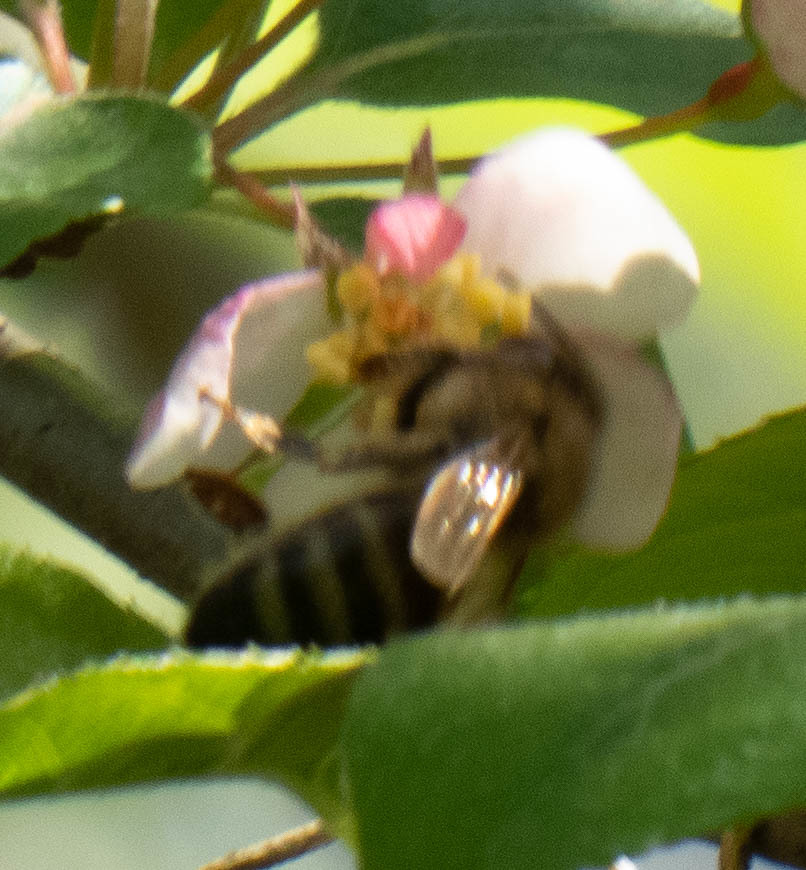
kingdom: Animalia
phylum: Arthropoda
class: Insecta
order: Hymenoptera
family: Apidae
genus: Apis
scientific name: Apis mellifera
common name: Honey bee
